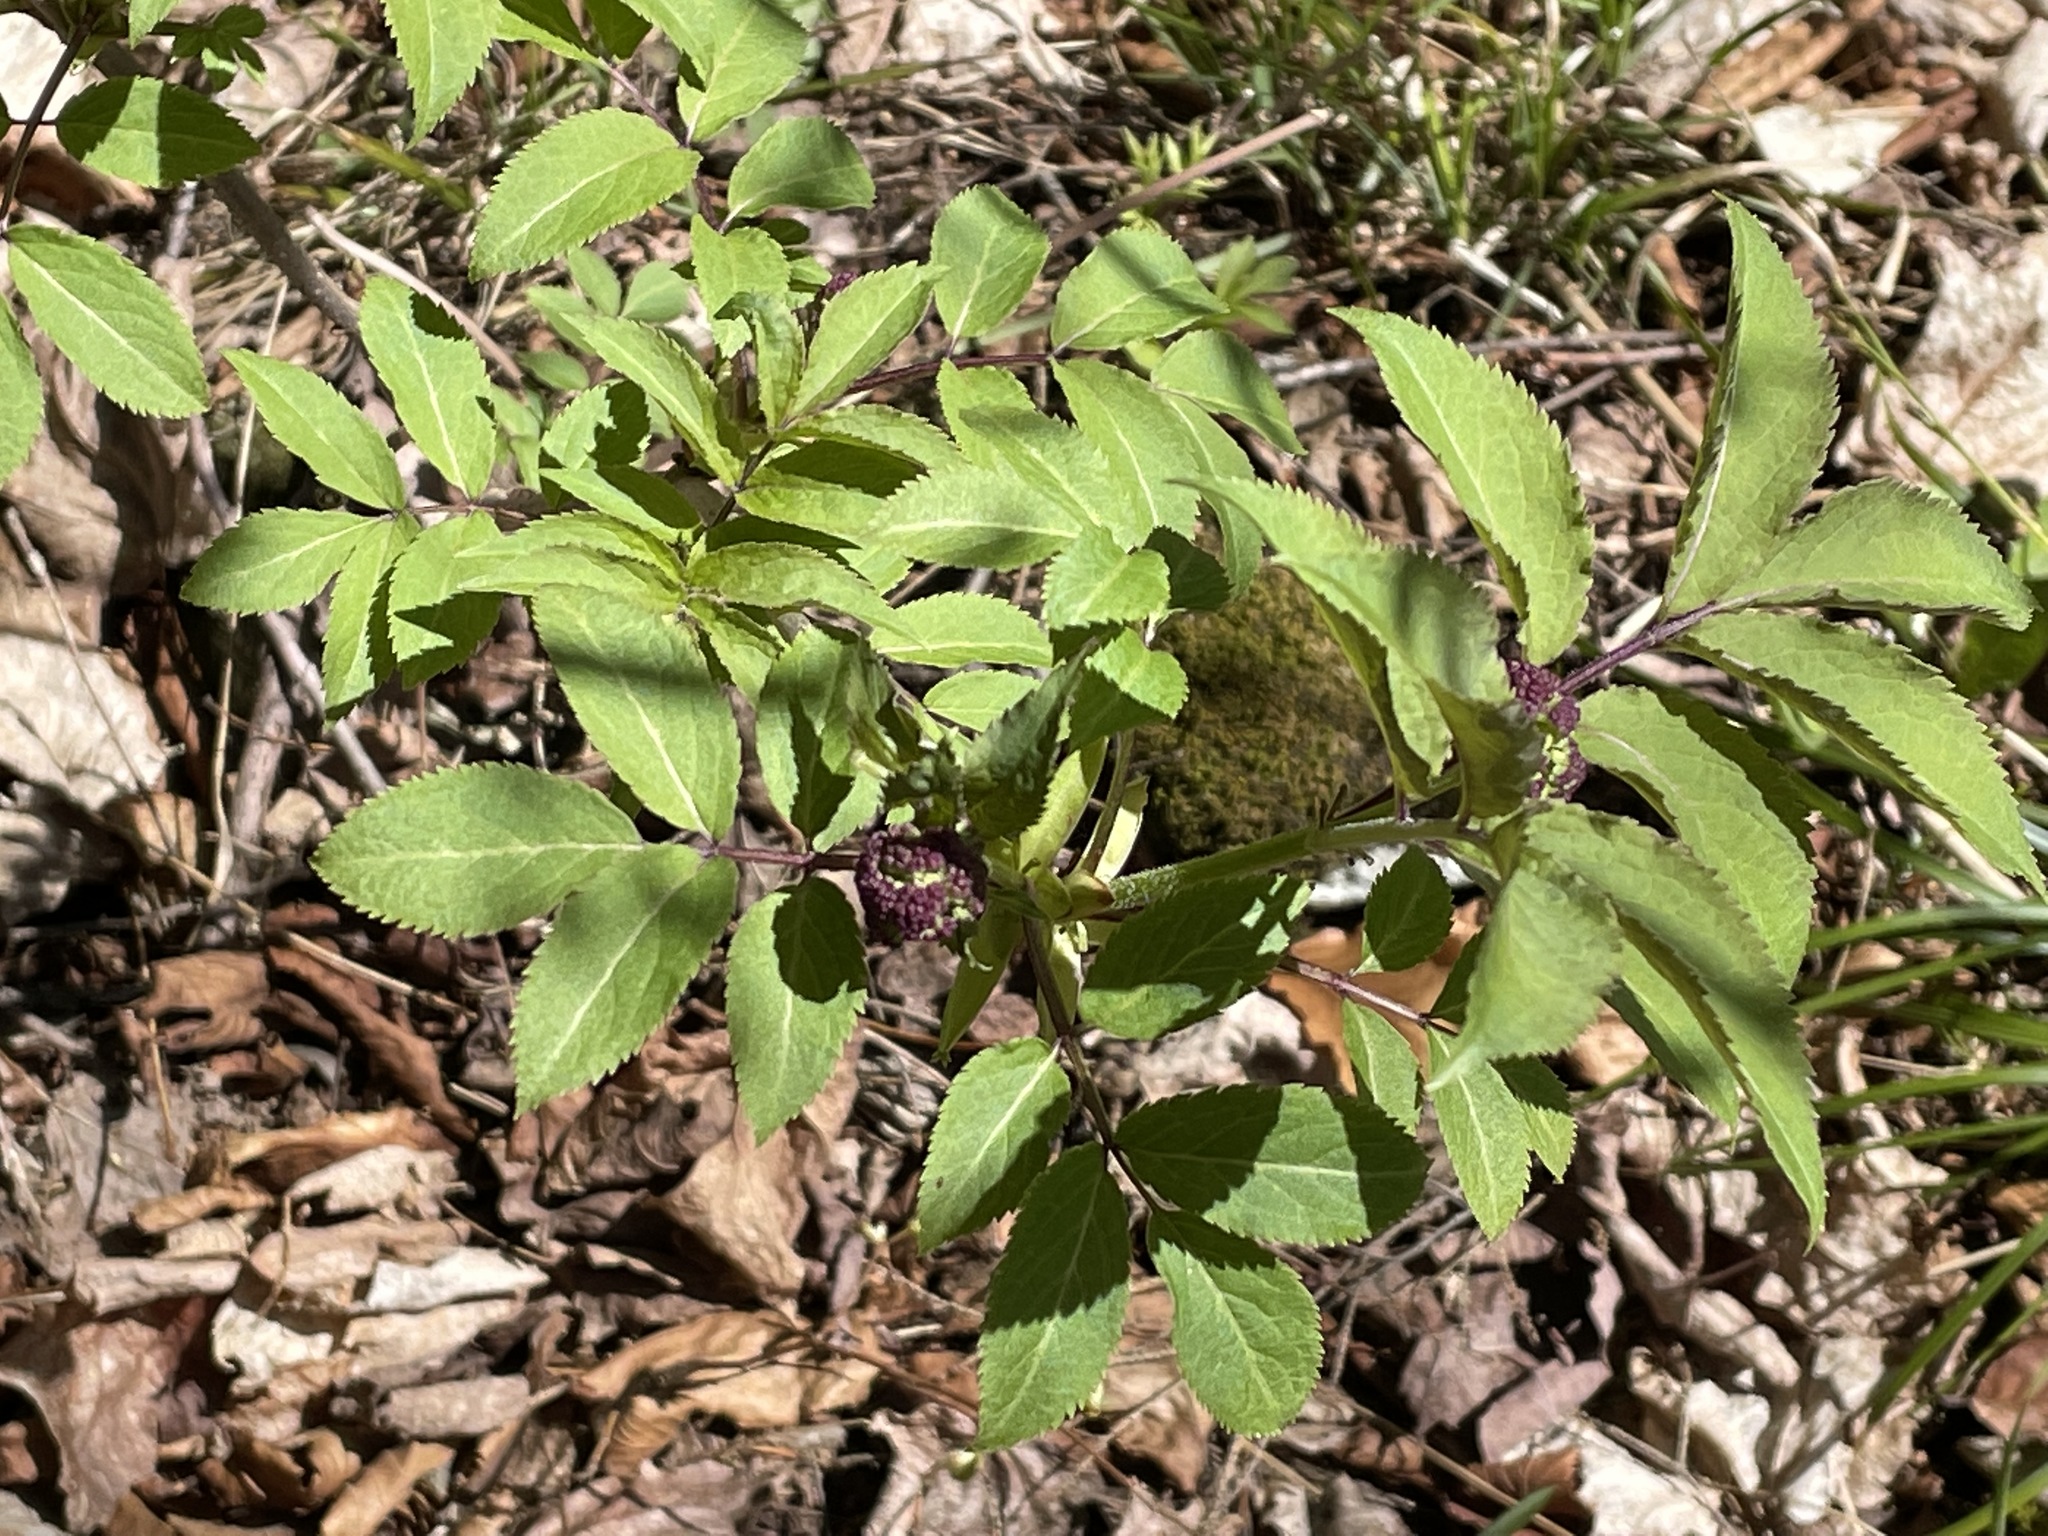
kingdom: Plantae
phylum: Tracheophyta
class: Magnoliopsida
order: Dipsacales
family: Viburnaceae
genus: Sambucus
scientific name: Sambucus racemosa
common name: Red-berried elder
